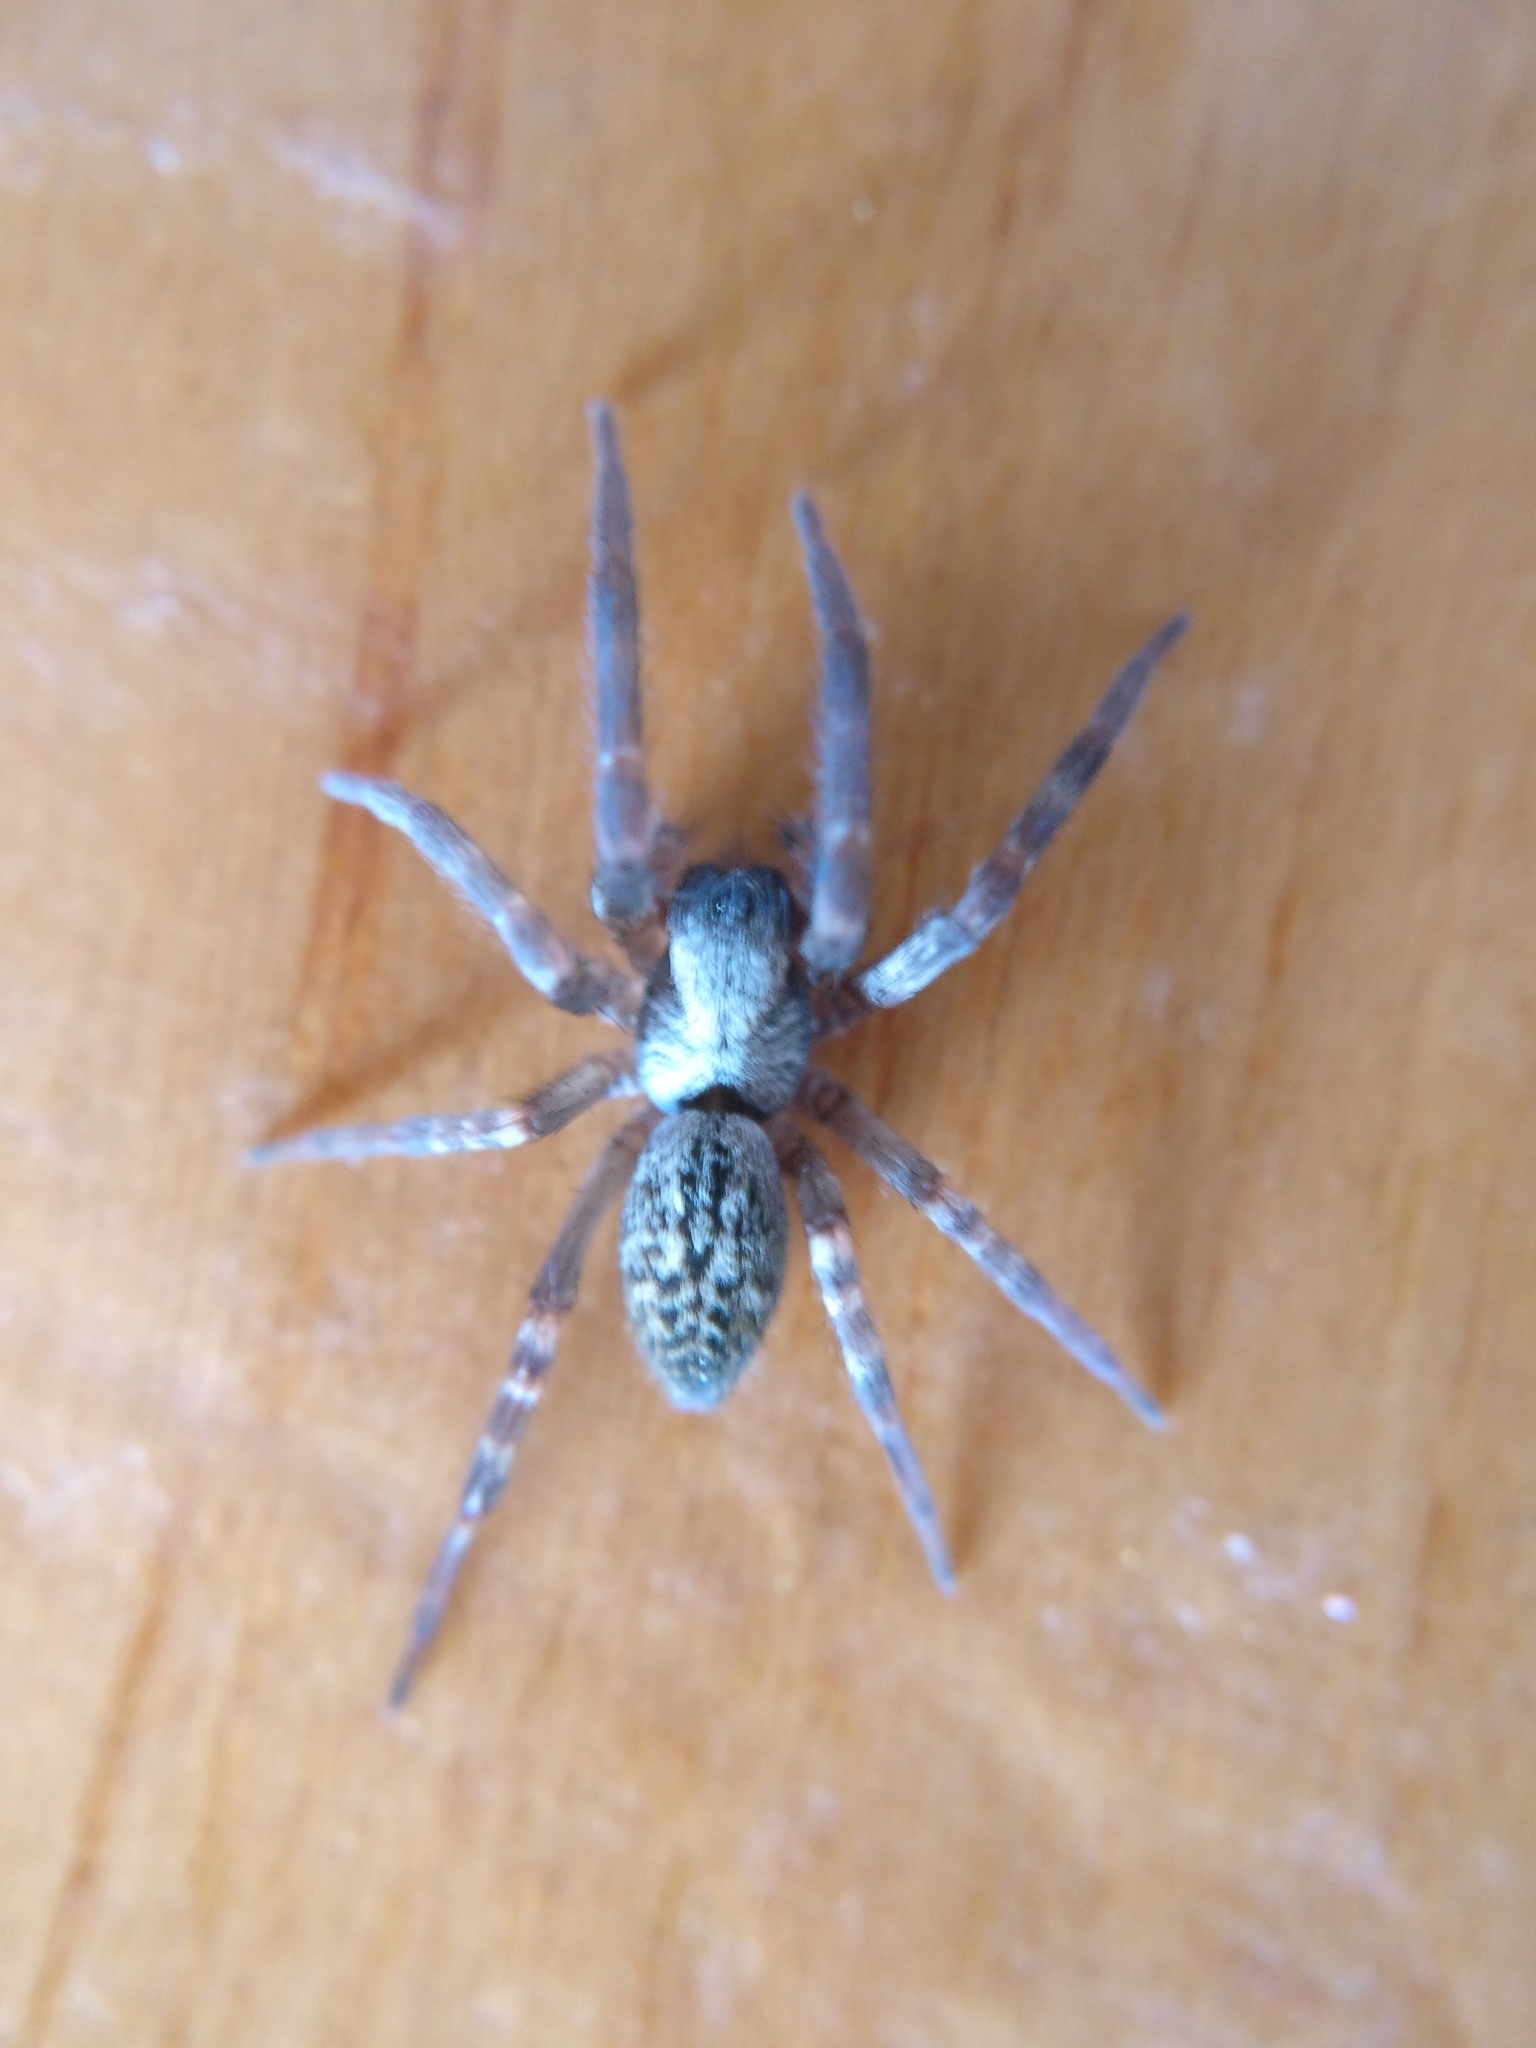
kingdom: Animalia
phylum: Arthropoda
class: Arachnida
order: Araneae
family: Desidae
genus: Badumna
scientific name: Badumna
